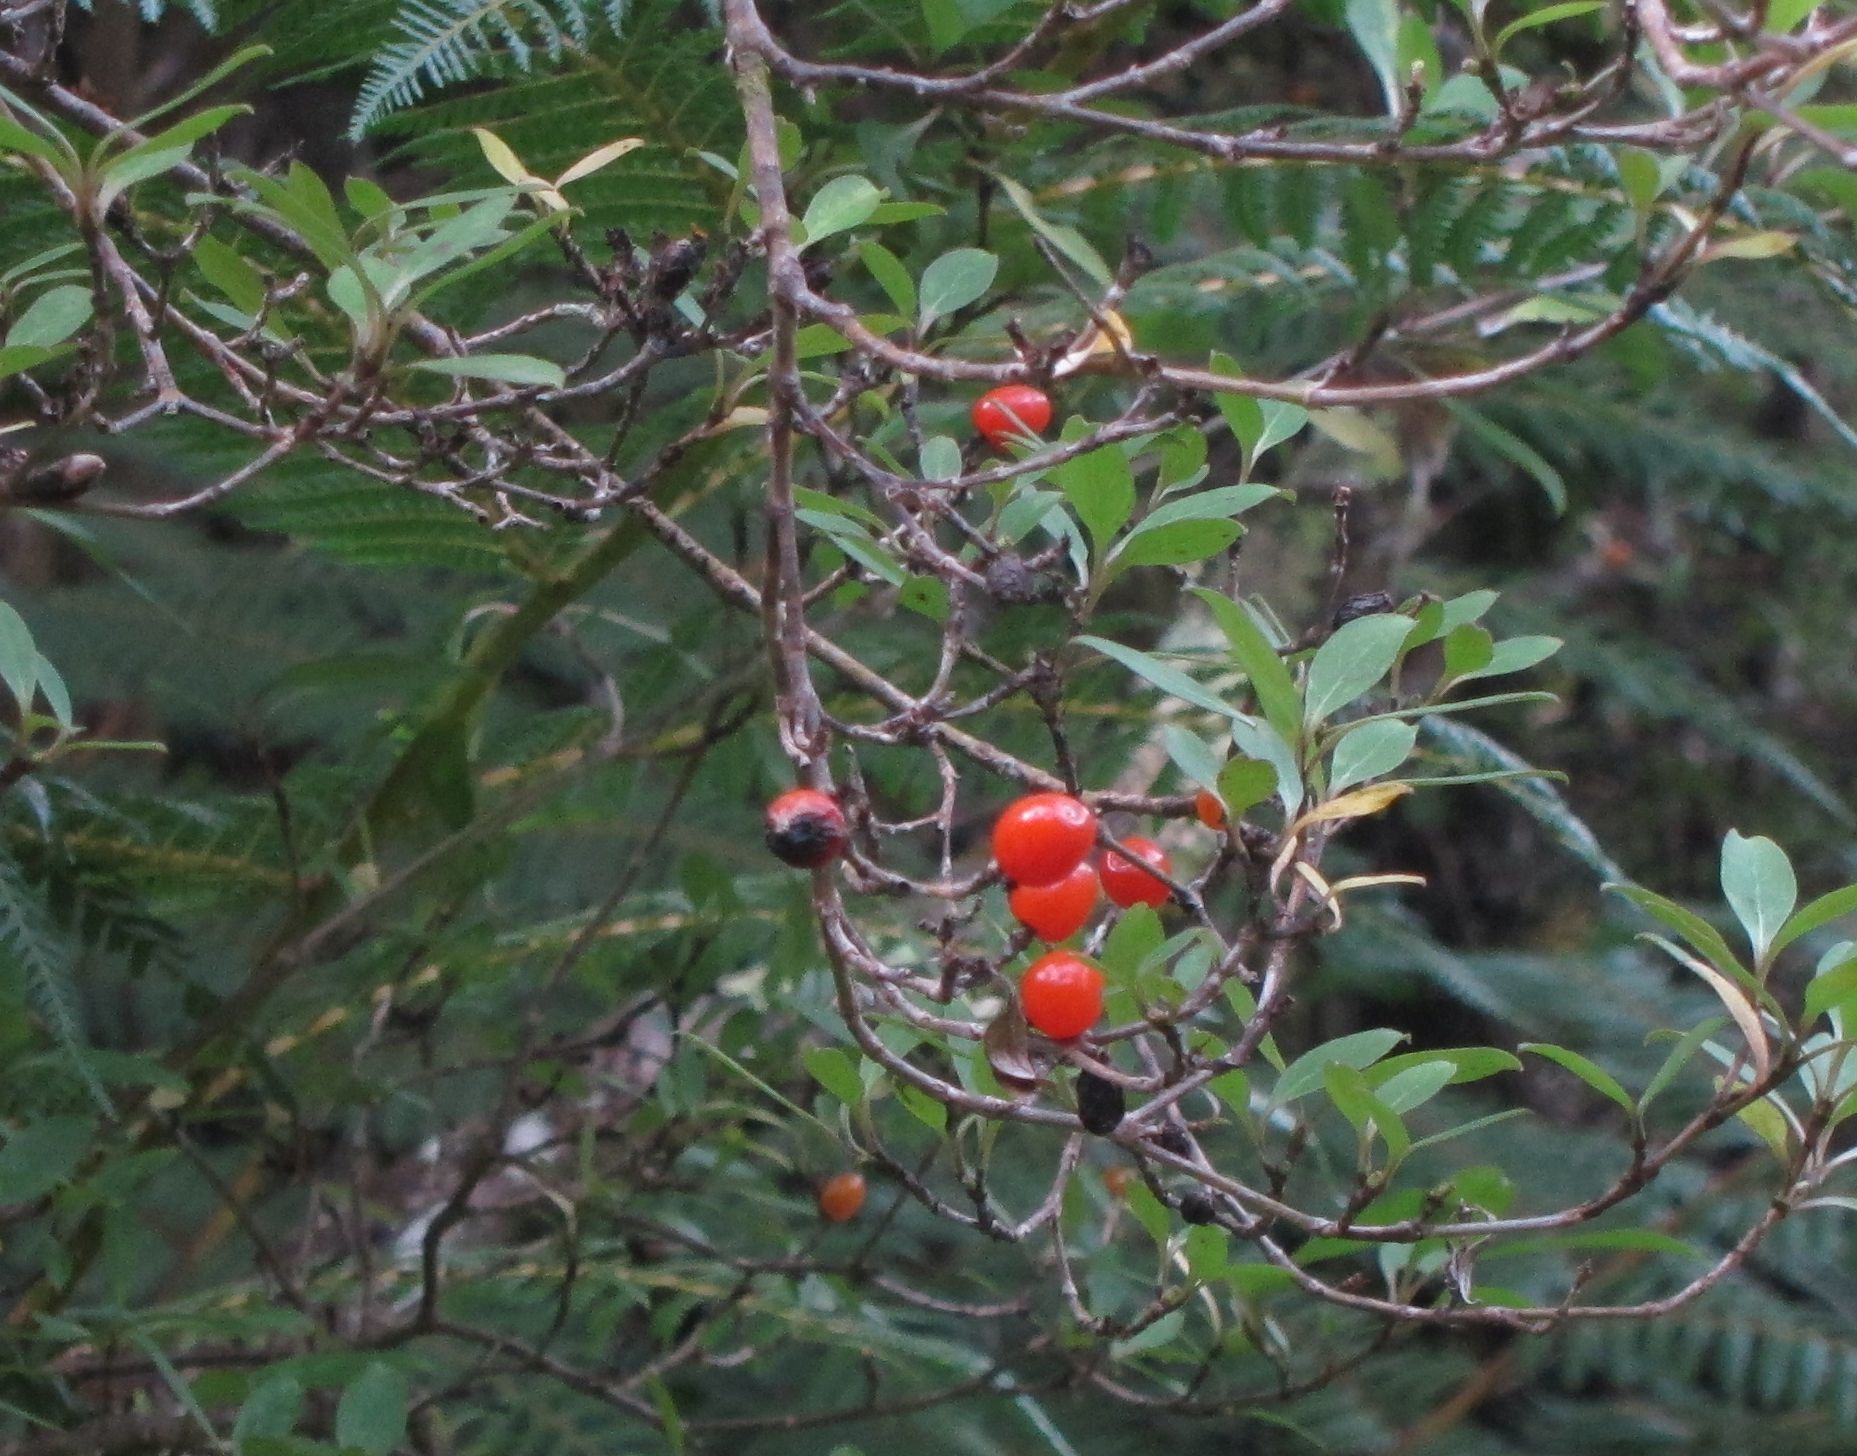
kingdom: Plantae
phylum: Tracheophyta
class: Magnoliopsida
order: Gentianales
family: Rubiaceae
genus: Coprosma
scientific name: Coprosma foetidissima
